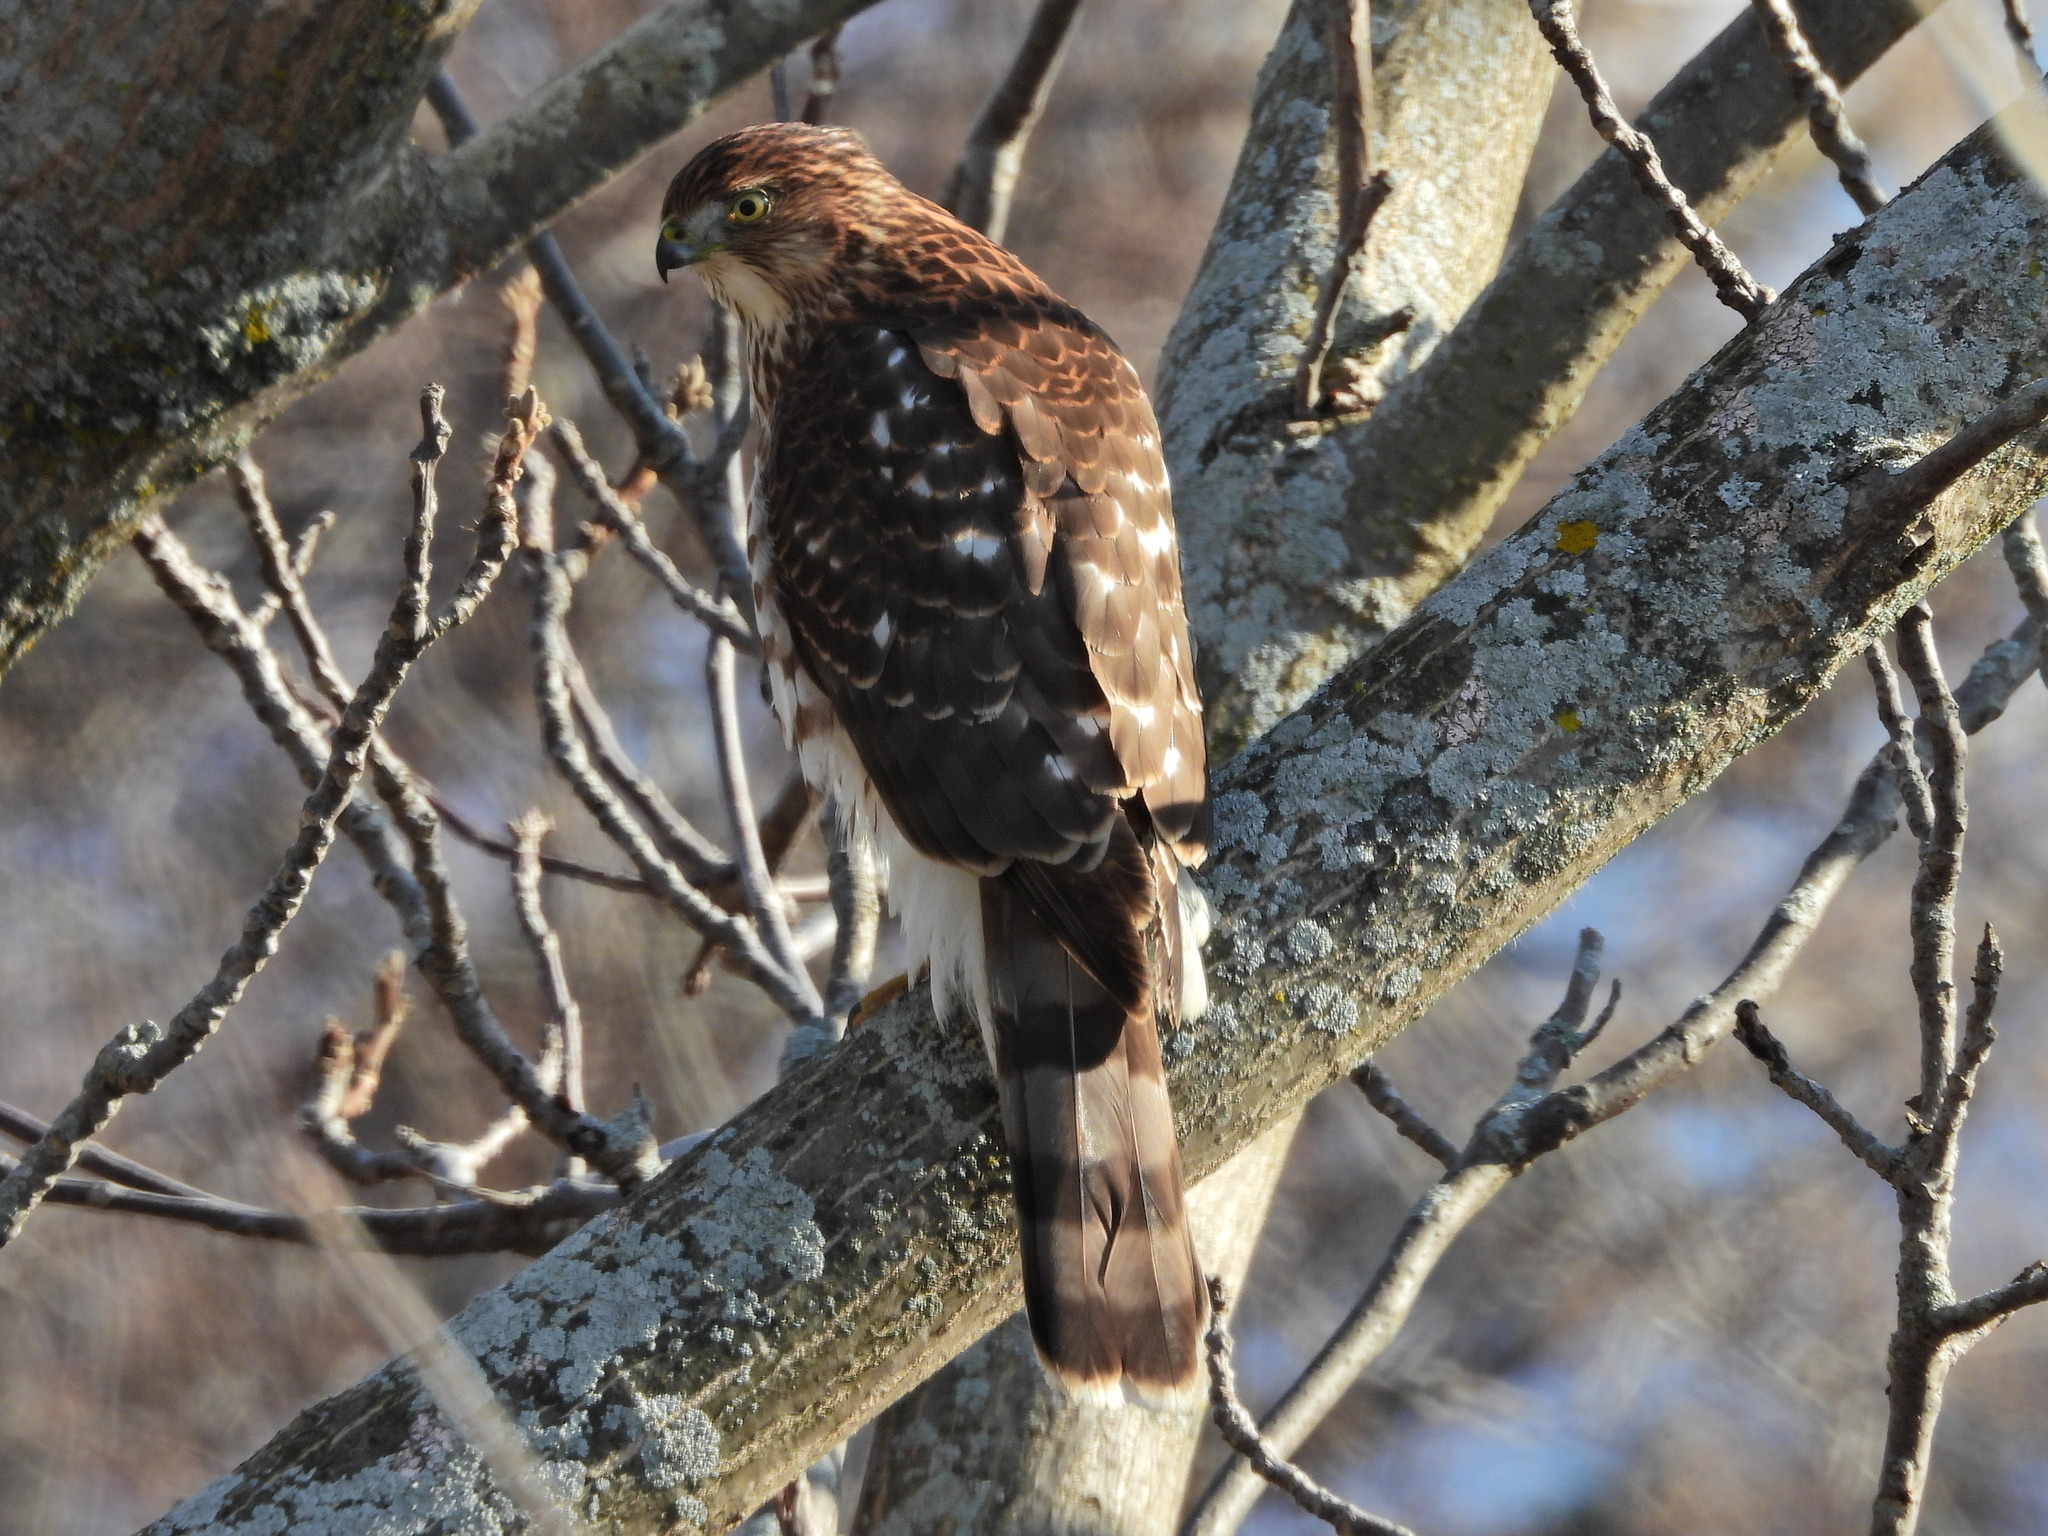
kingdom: Animalia
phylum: Chordata
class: Aves
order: Accipitriformes
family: Accipitridae
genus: Accipiter
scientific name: Accipiter cooperii
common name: Cooper's hawk
